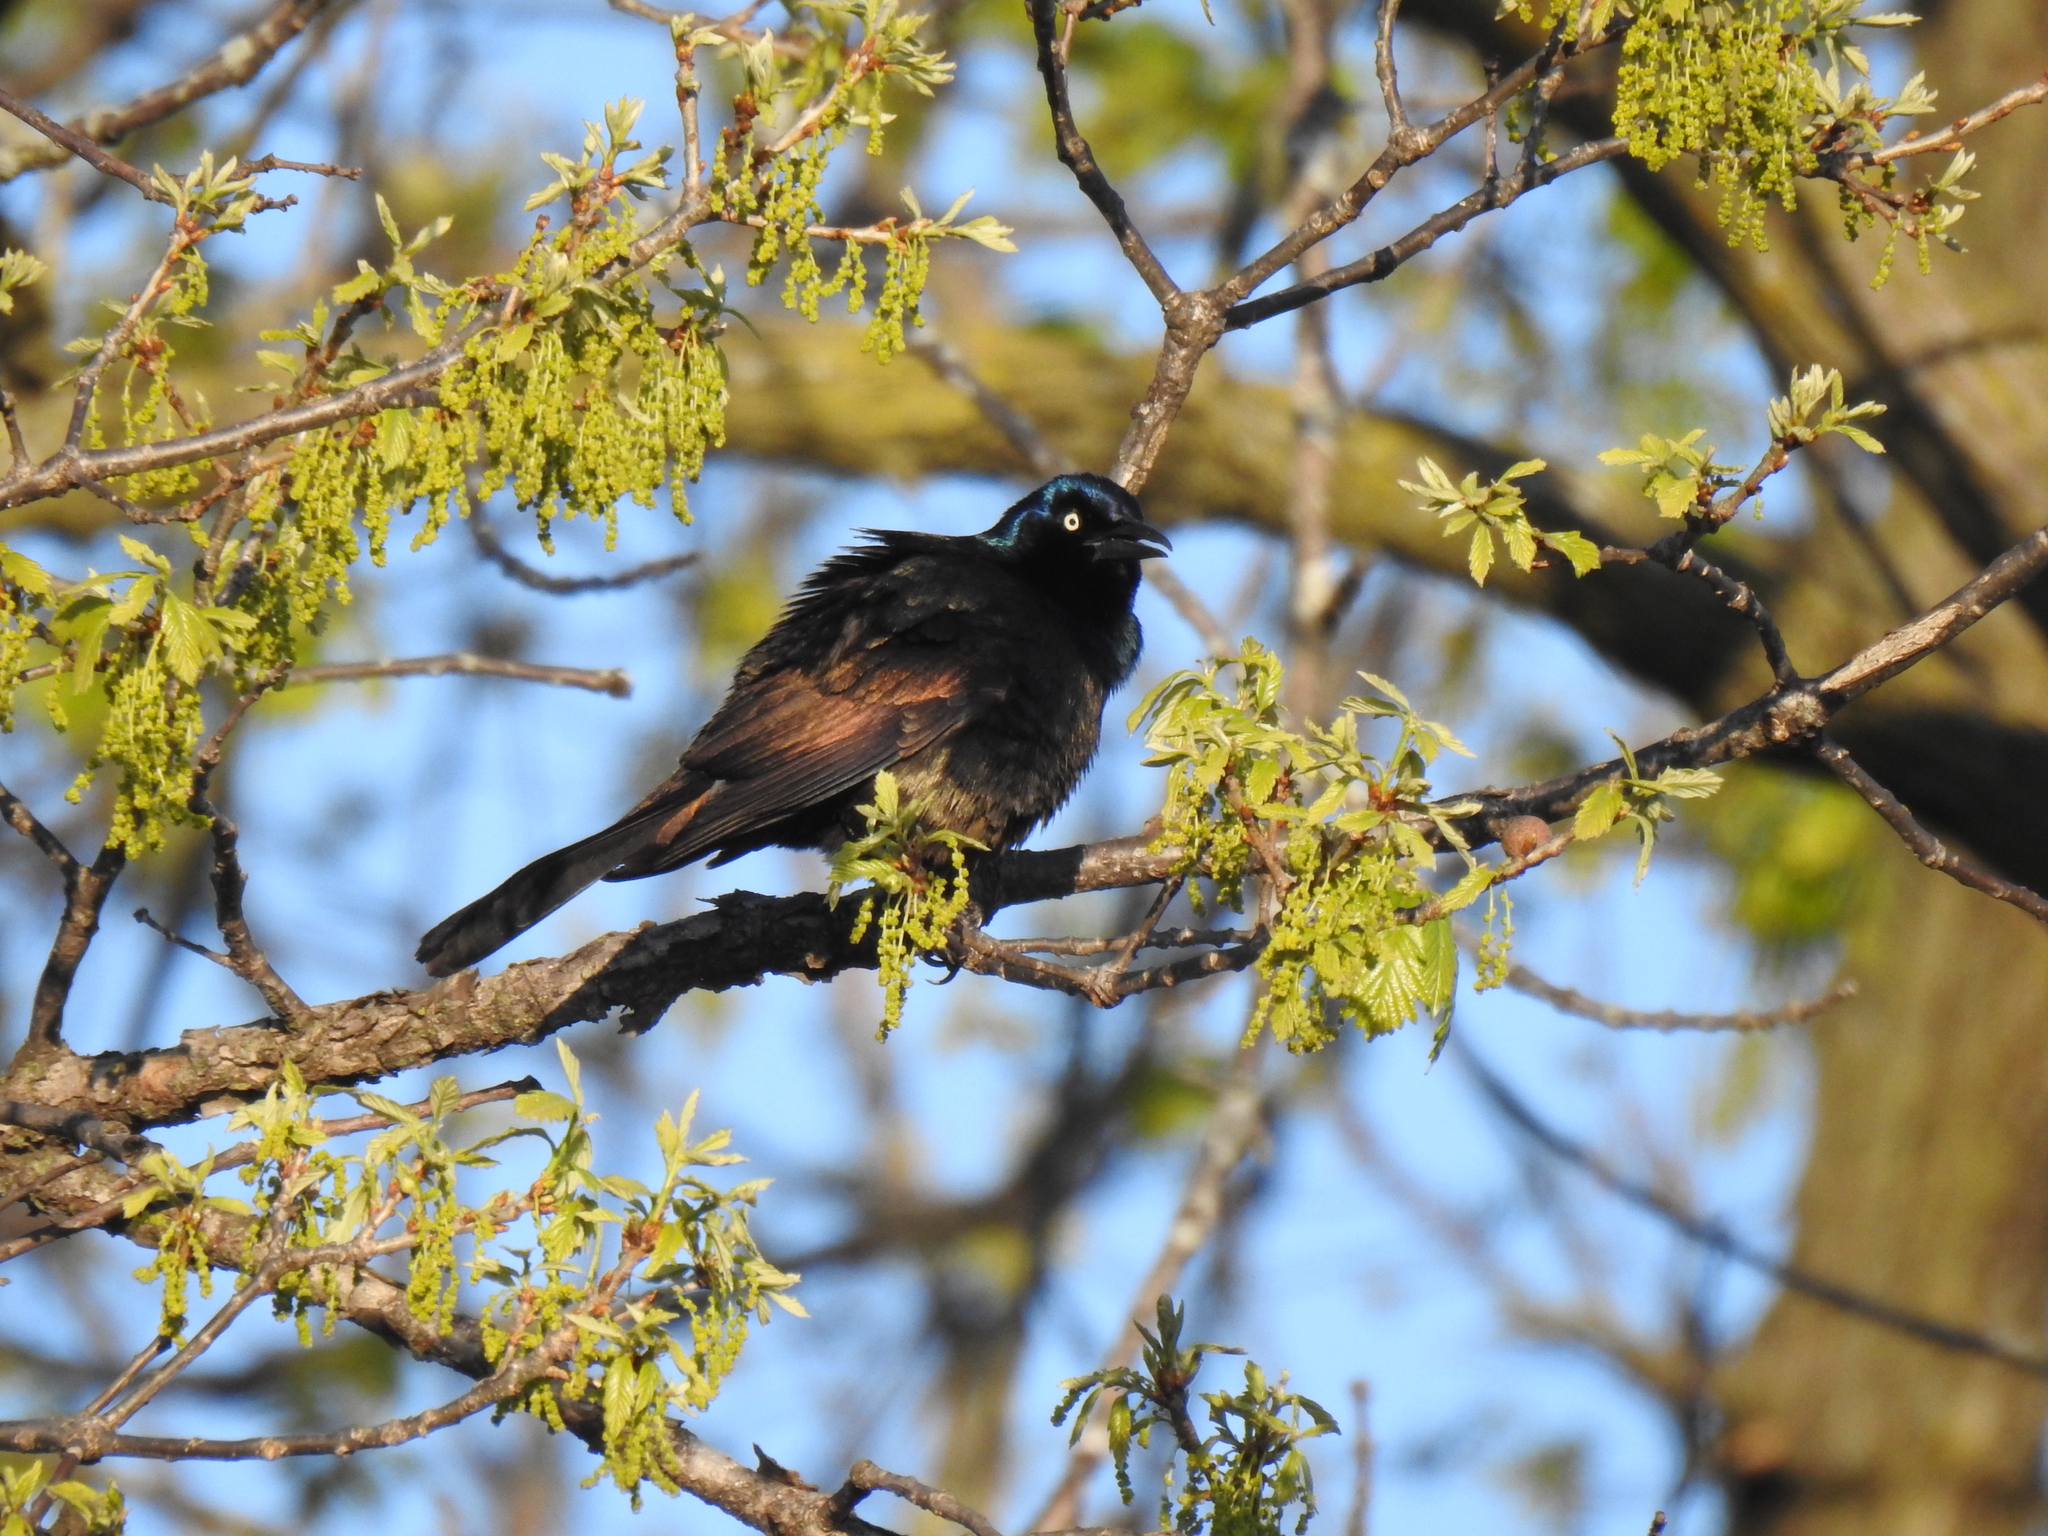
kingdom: Animalia
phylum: Chordata
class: Aves
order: Passeriformes
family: Icteridae
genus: Quiscalus
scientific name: Quiscalus quiscula
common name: Common grackle
